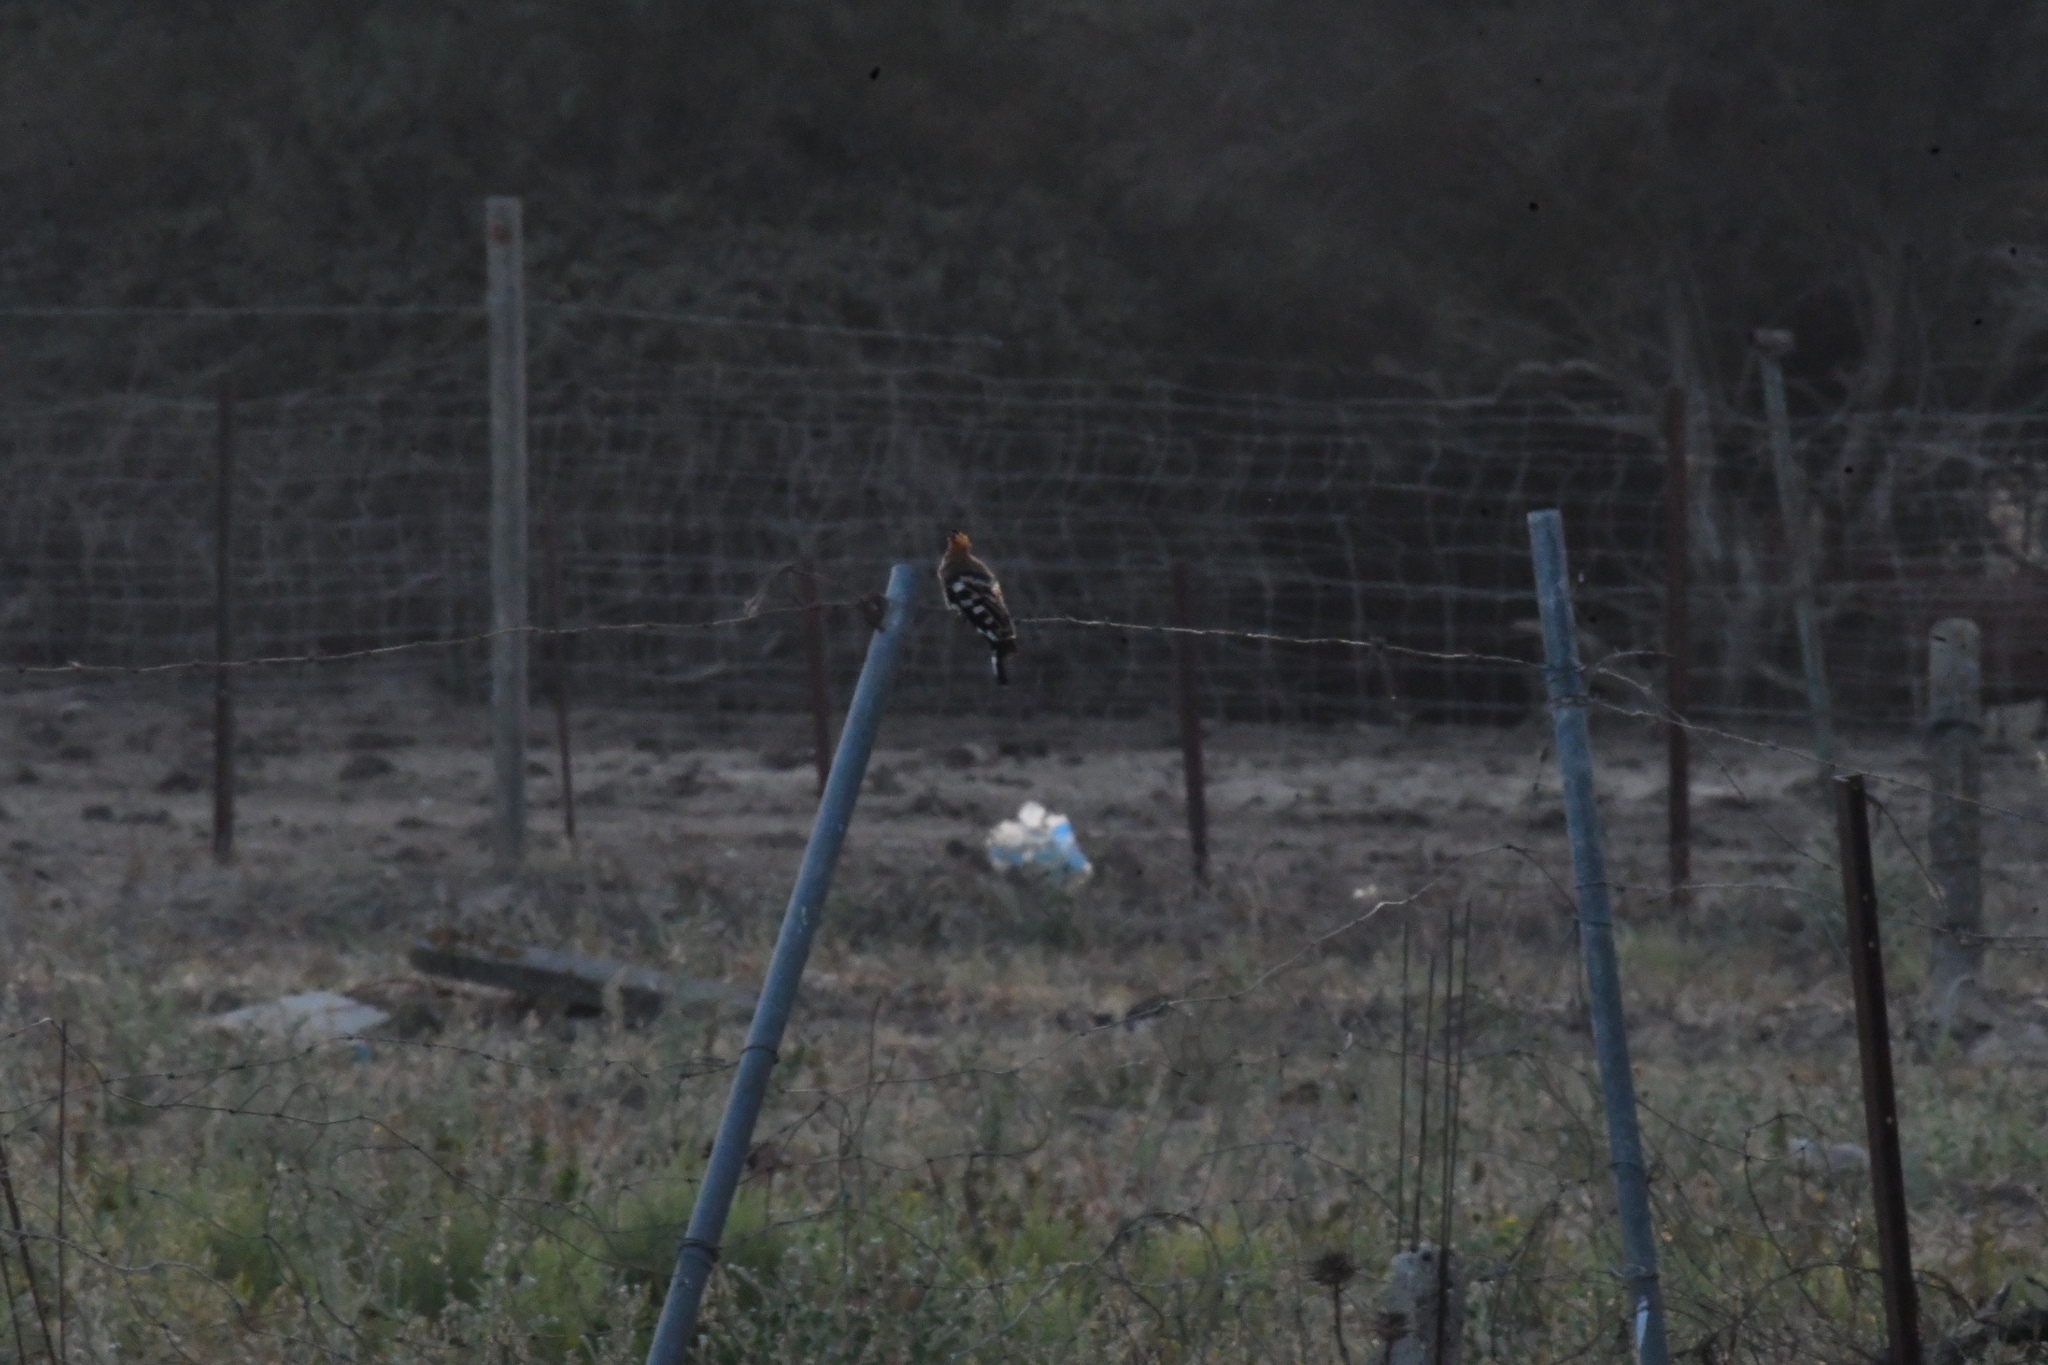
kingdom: Animalia
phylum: Chordata
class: Aves
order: Bucerotiformes
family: Upupidae
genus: Upupa
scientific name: Upupa epops
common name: Eurasian hoopoe
